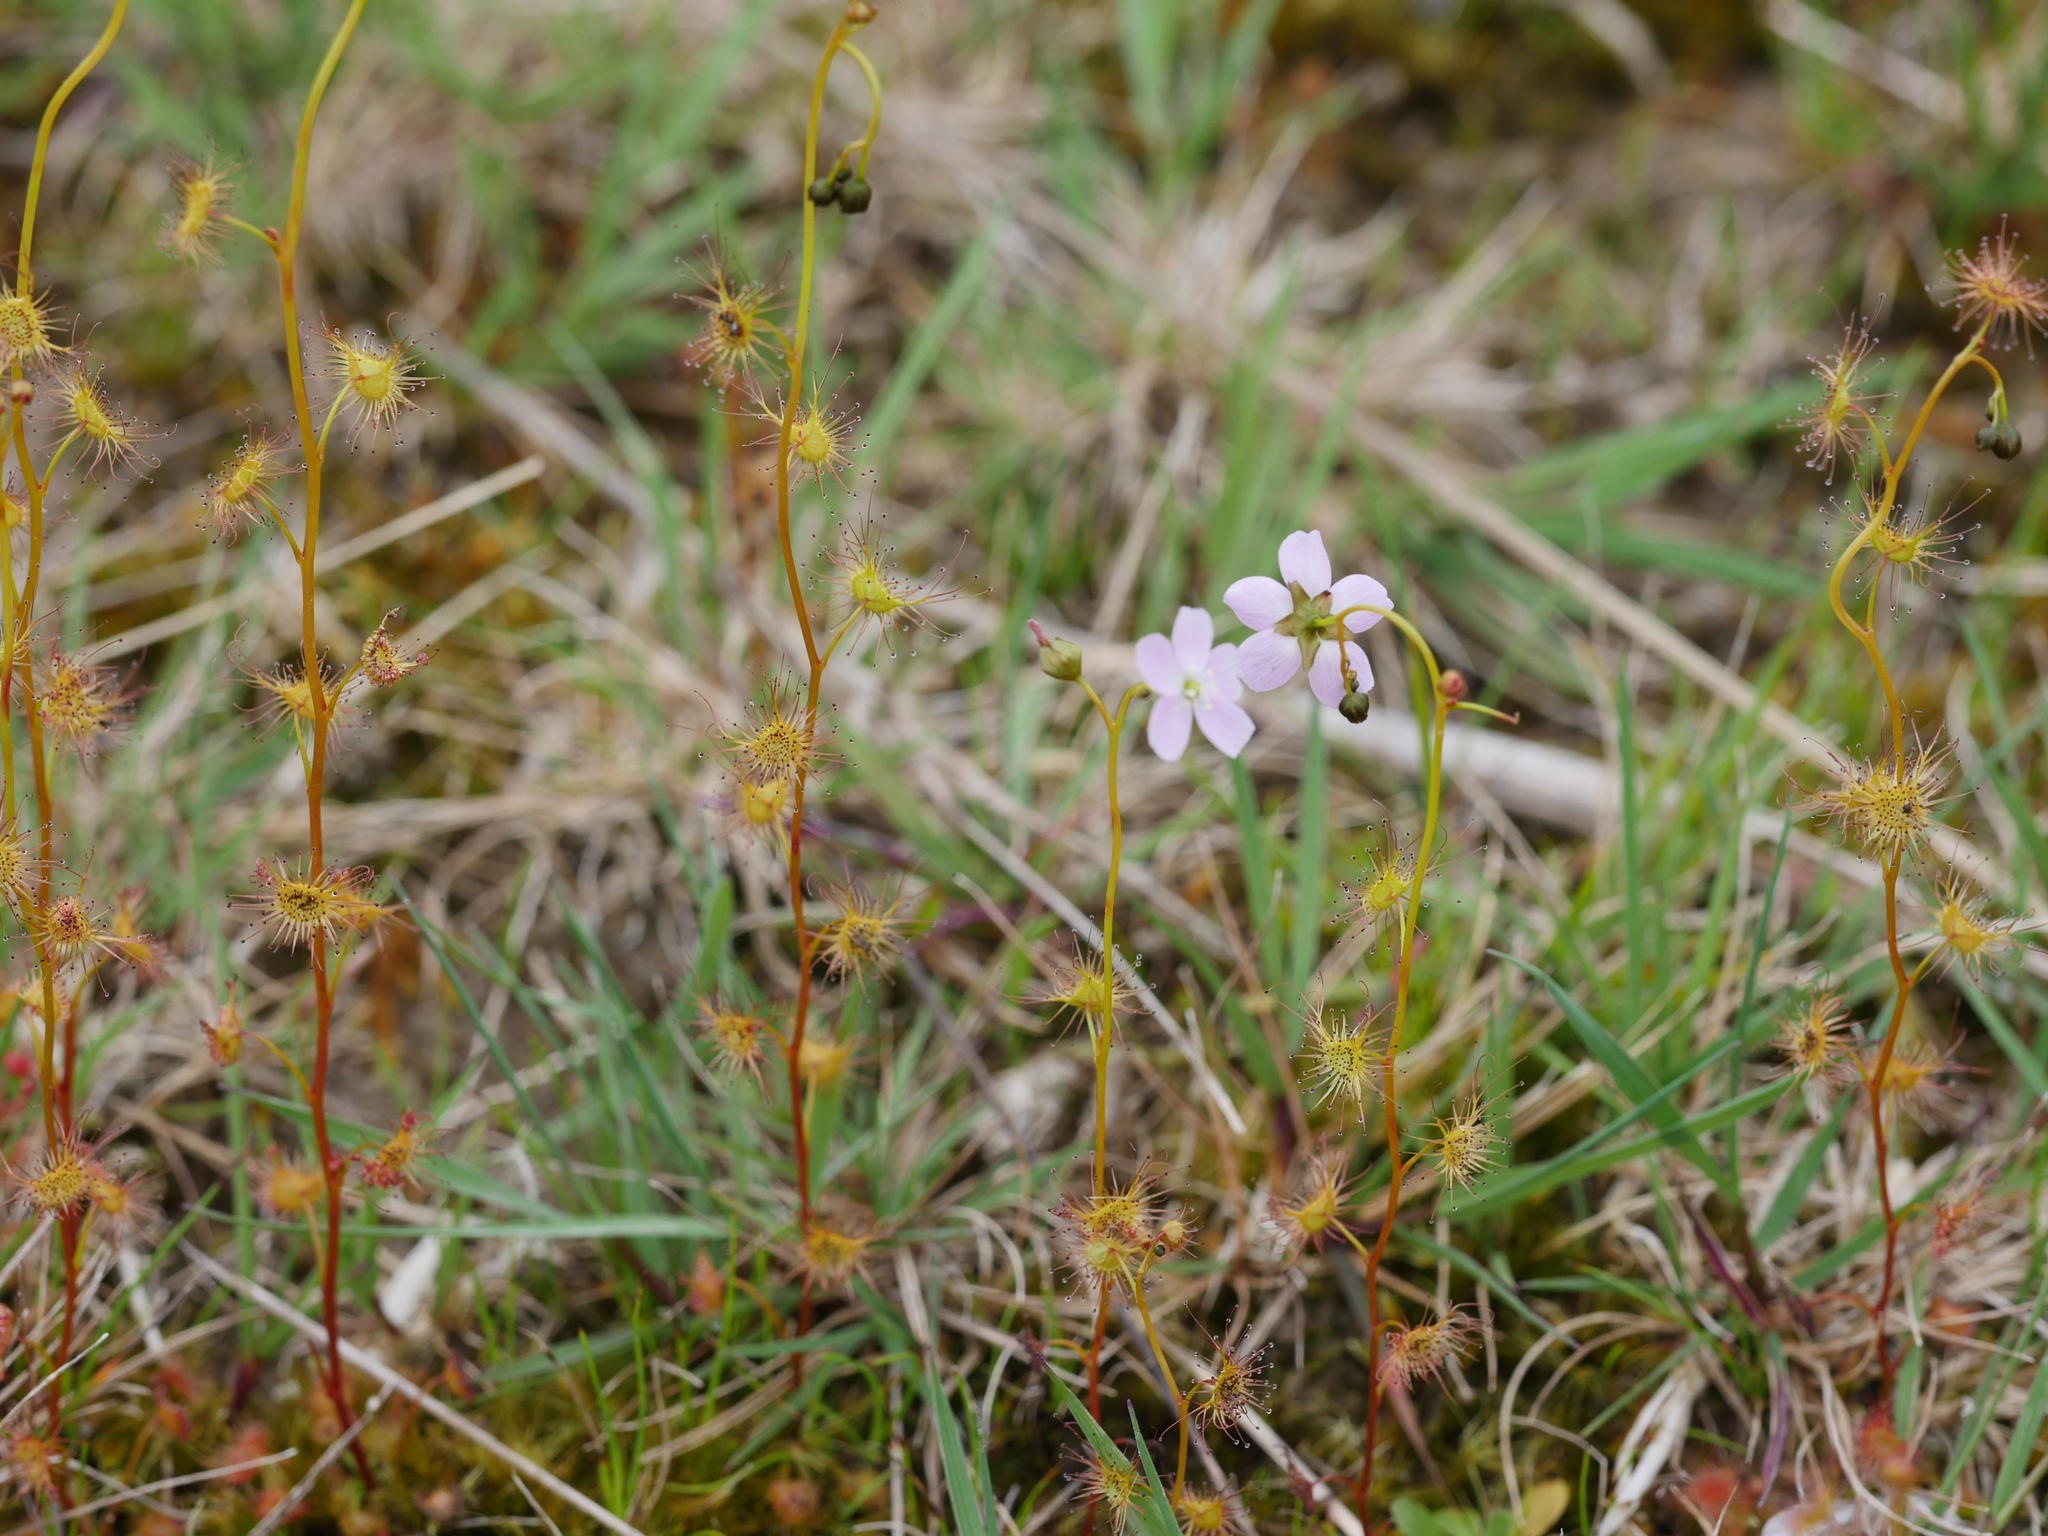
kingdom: Plantae
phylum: Tracheophyta
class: Magnoliopsida
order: Caryophyllales
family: Droseraceae
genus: Drosera
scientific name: Drosera peltata
